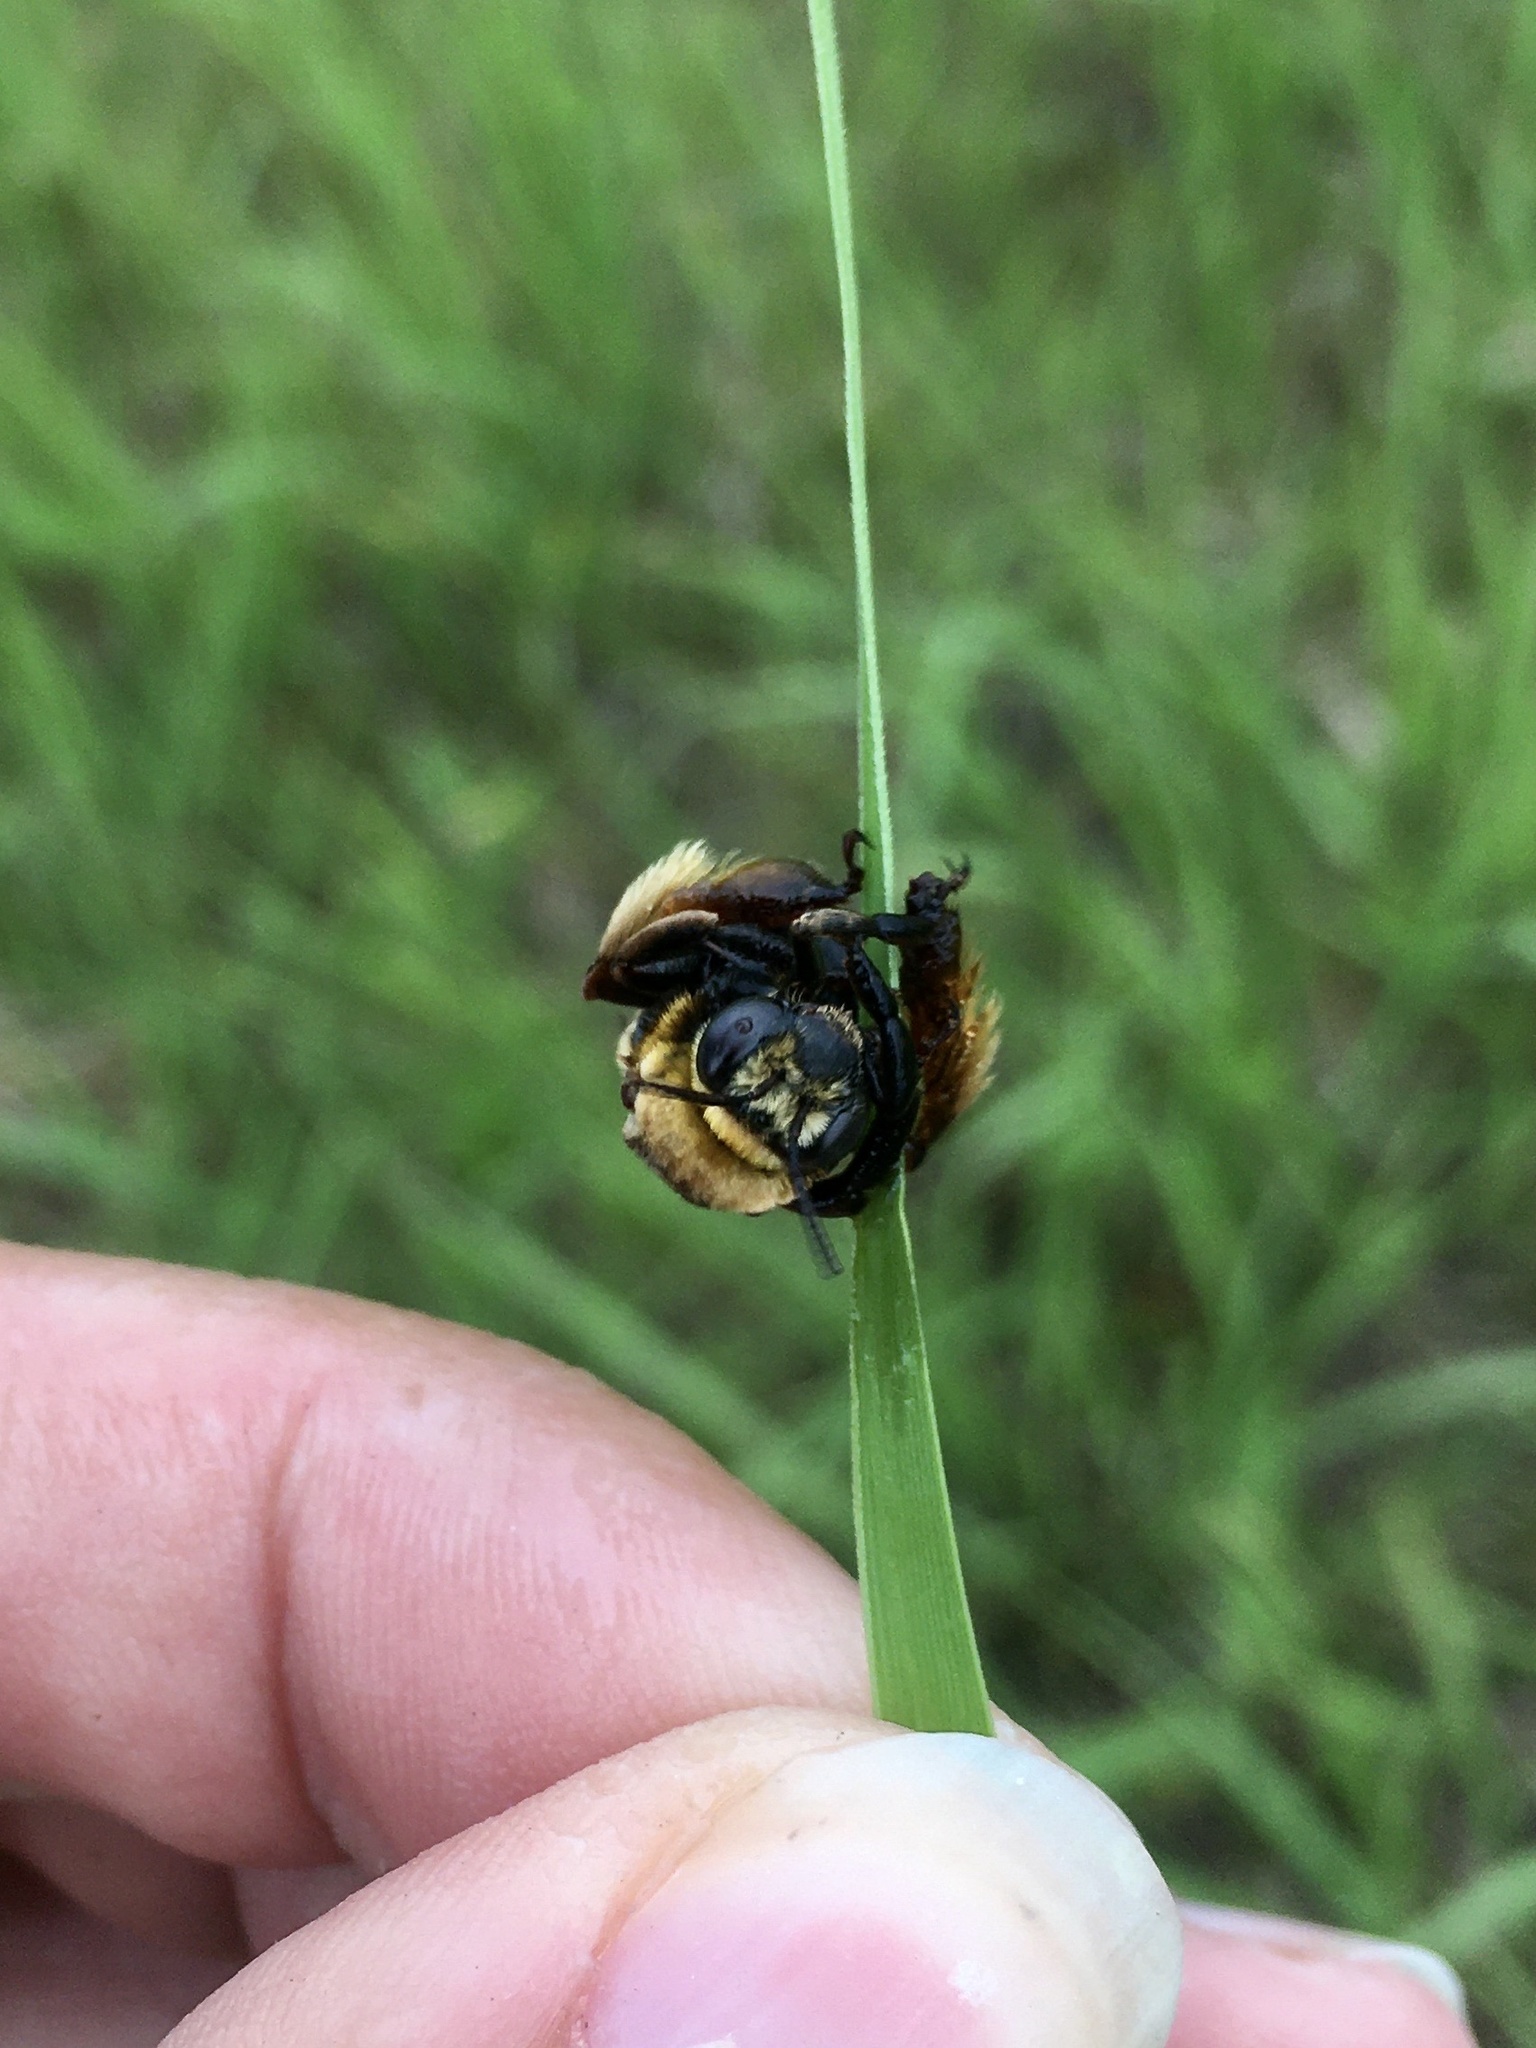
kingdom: Animalia
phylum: Arthropoda
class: Insecta
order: Hymenoptera
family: Apidae
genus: Svastra
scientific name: Svastra obliqua
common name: Oblique longhorn
